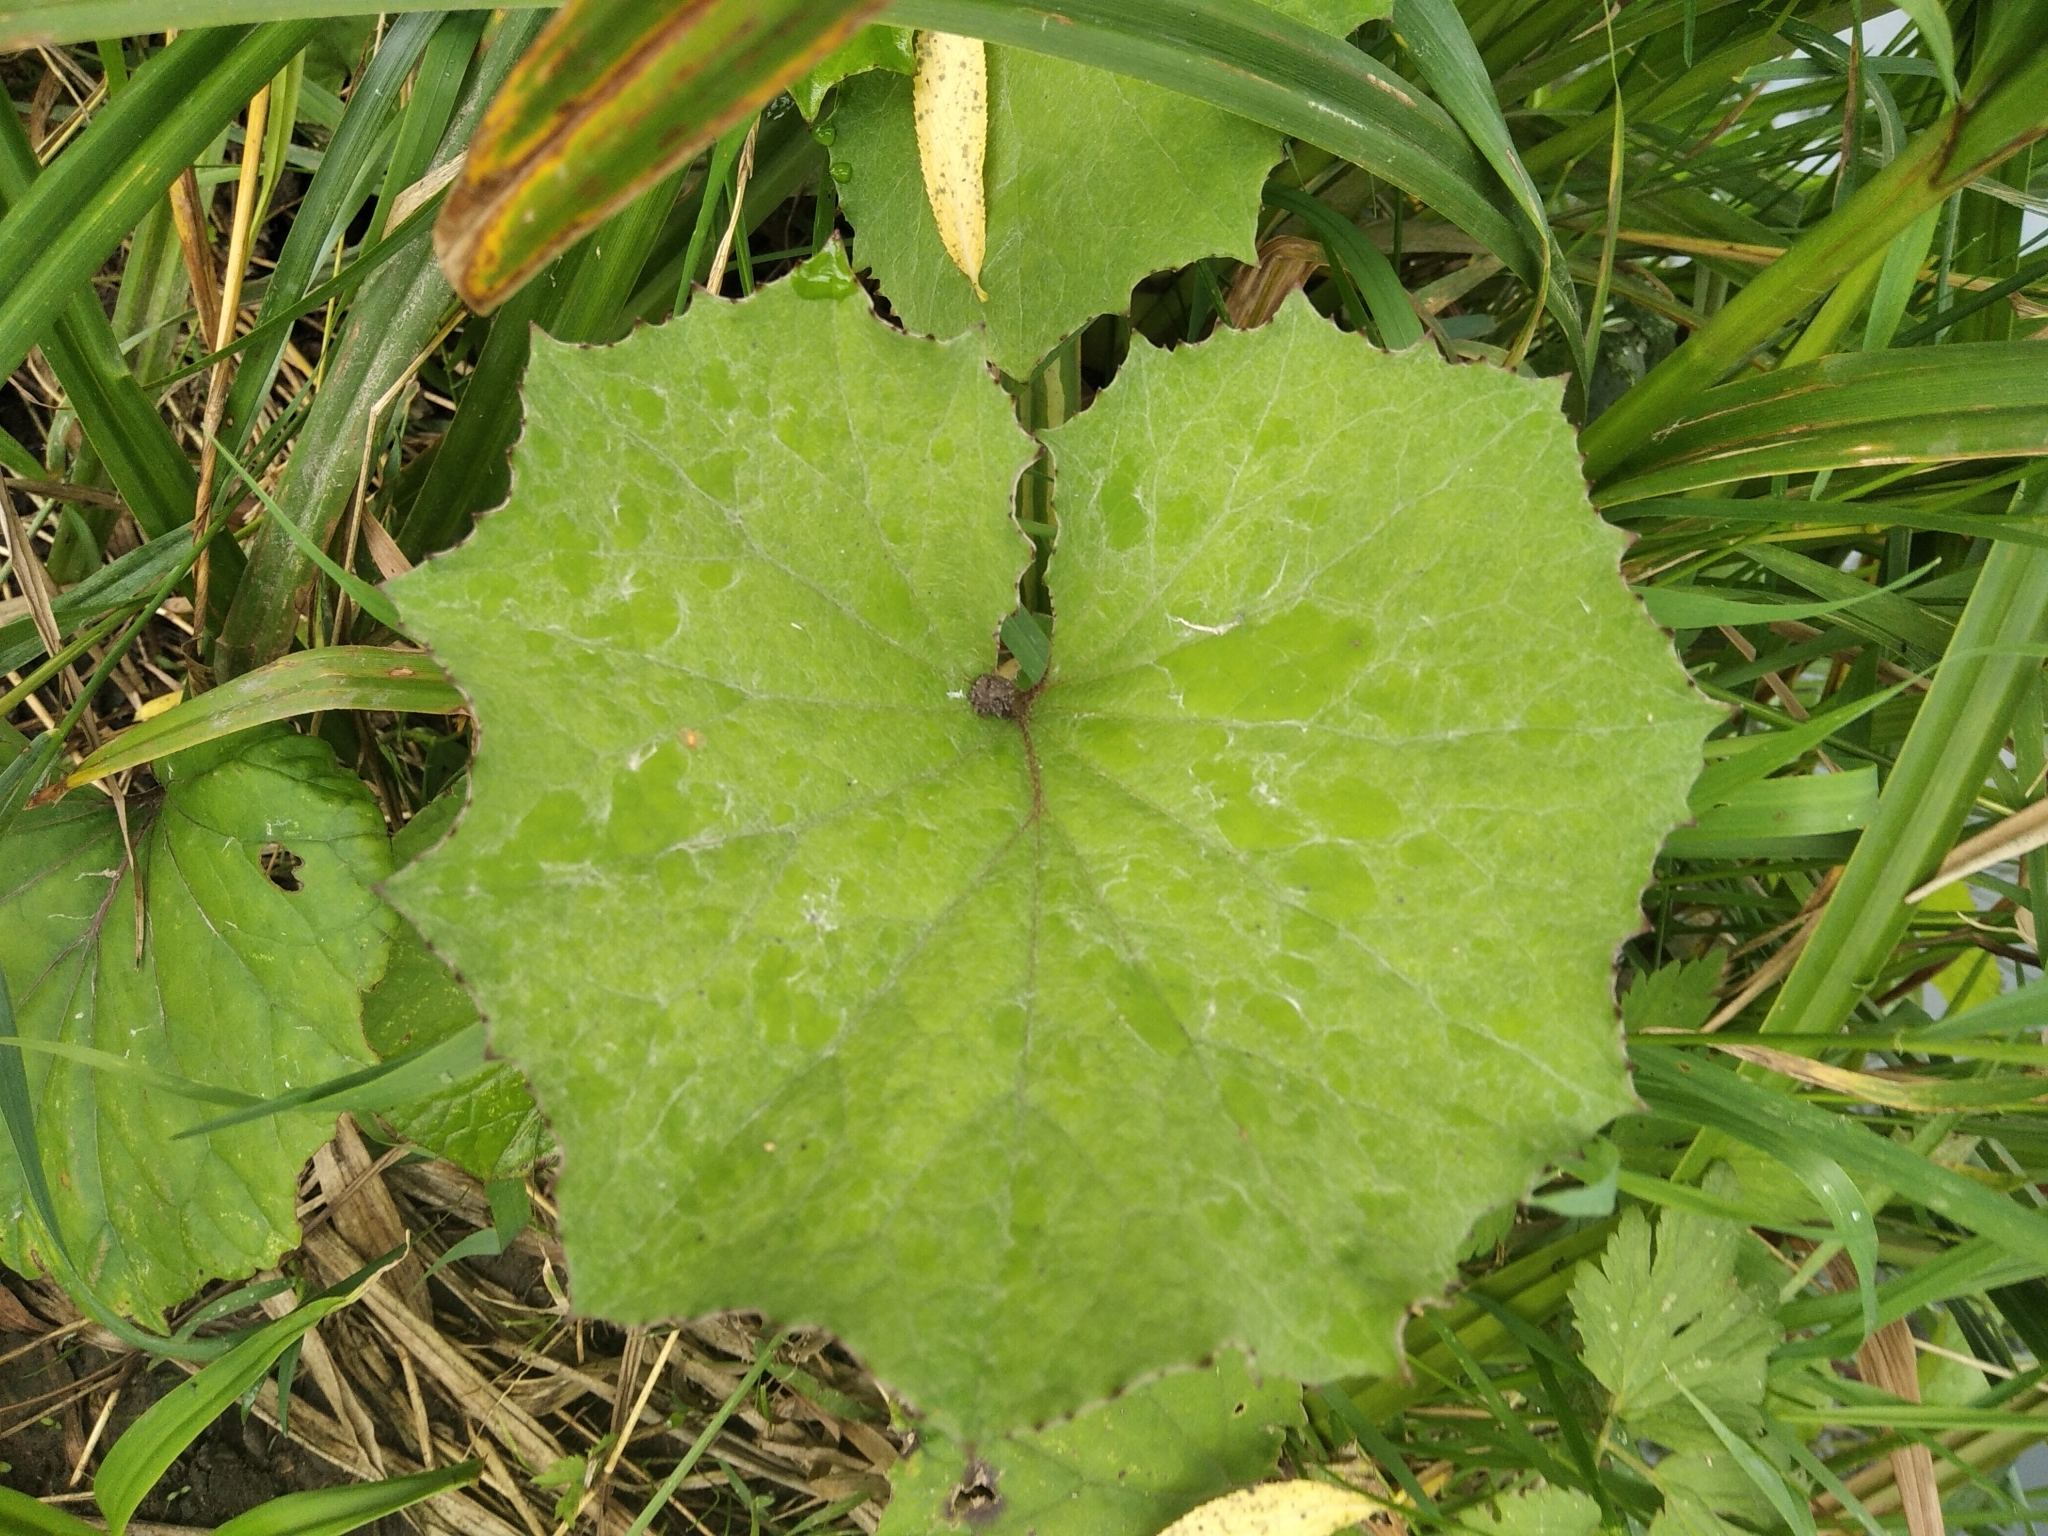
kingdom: Plantae
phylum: Tracheophyta
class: Magnoliopsida
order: Asterales
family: Asteraceae
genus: Tussilago
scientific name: Tussilago farfara
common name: Coltsfoot
